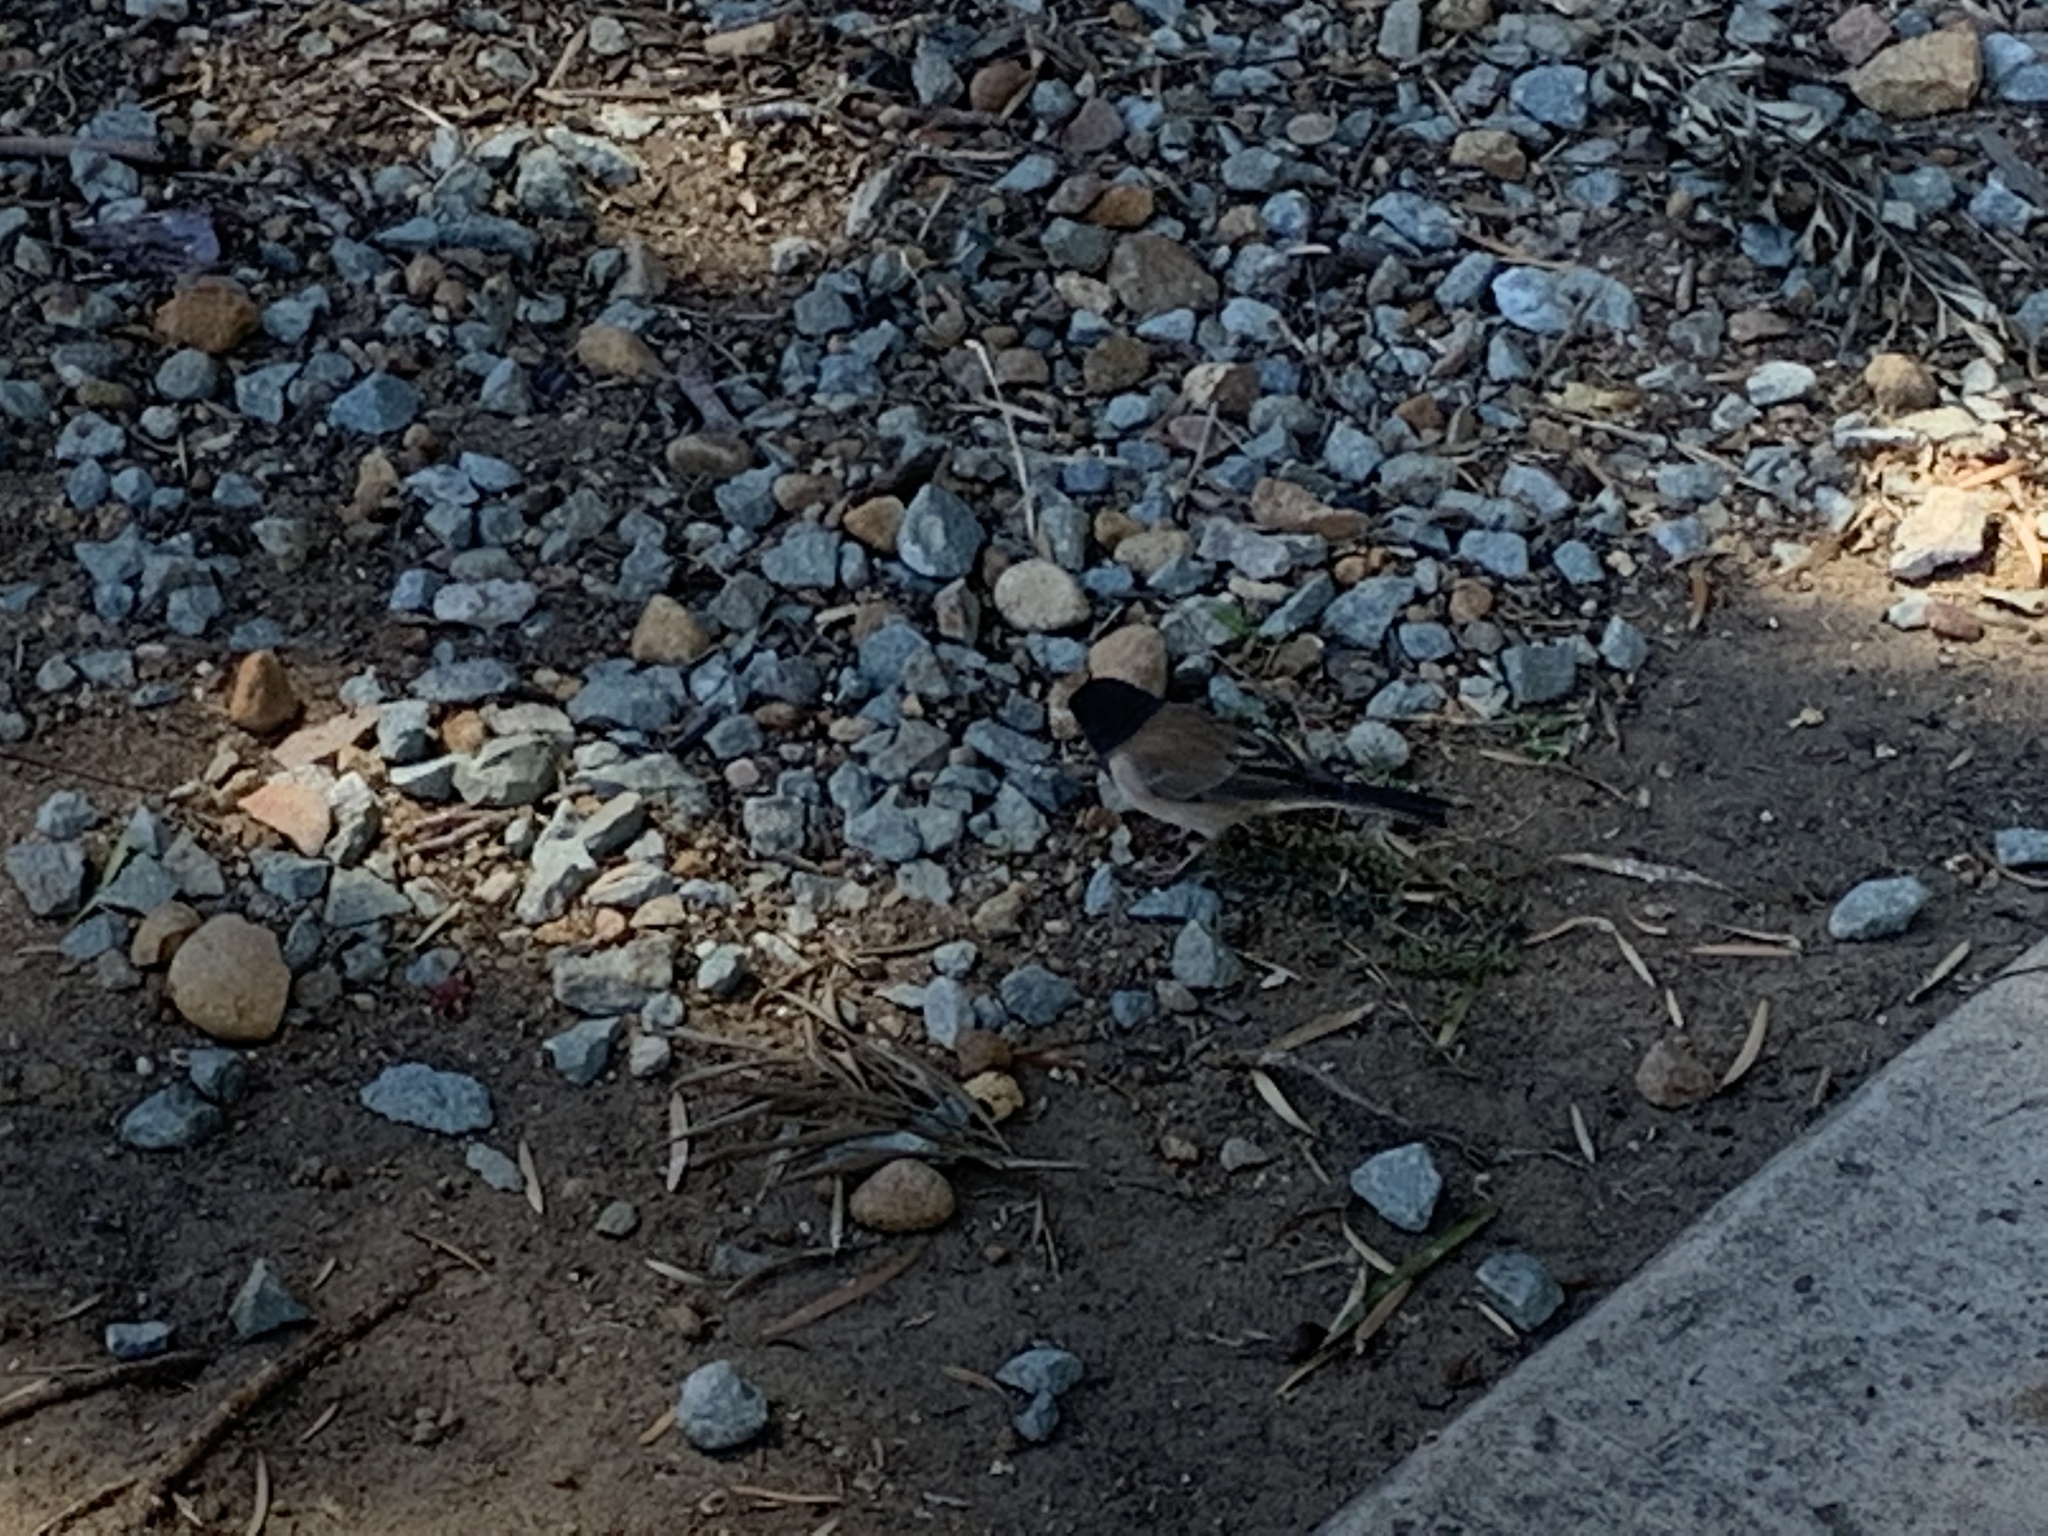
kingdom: Animalia
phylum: Chordata
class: Aves
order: Passeriformes
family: Passerellidae
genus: Junco
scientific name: Junco hyemalis
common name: Dark-eyed junco
